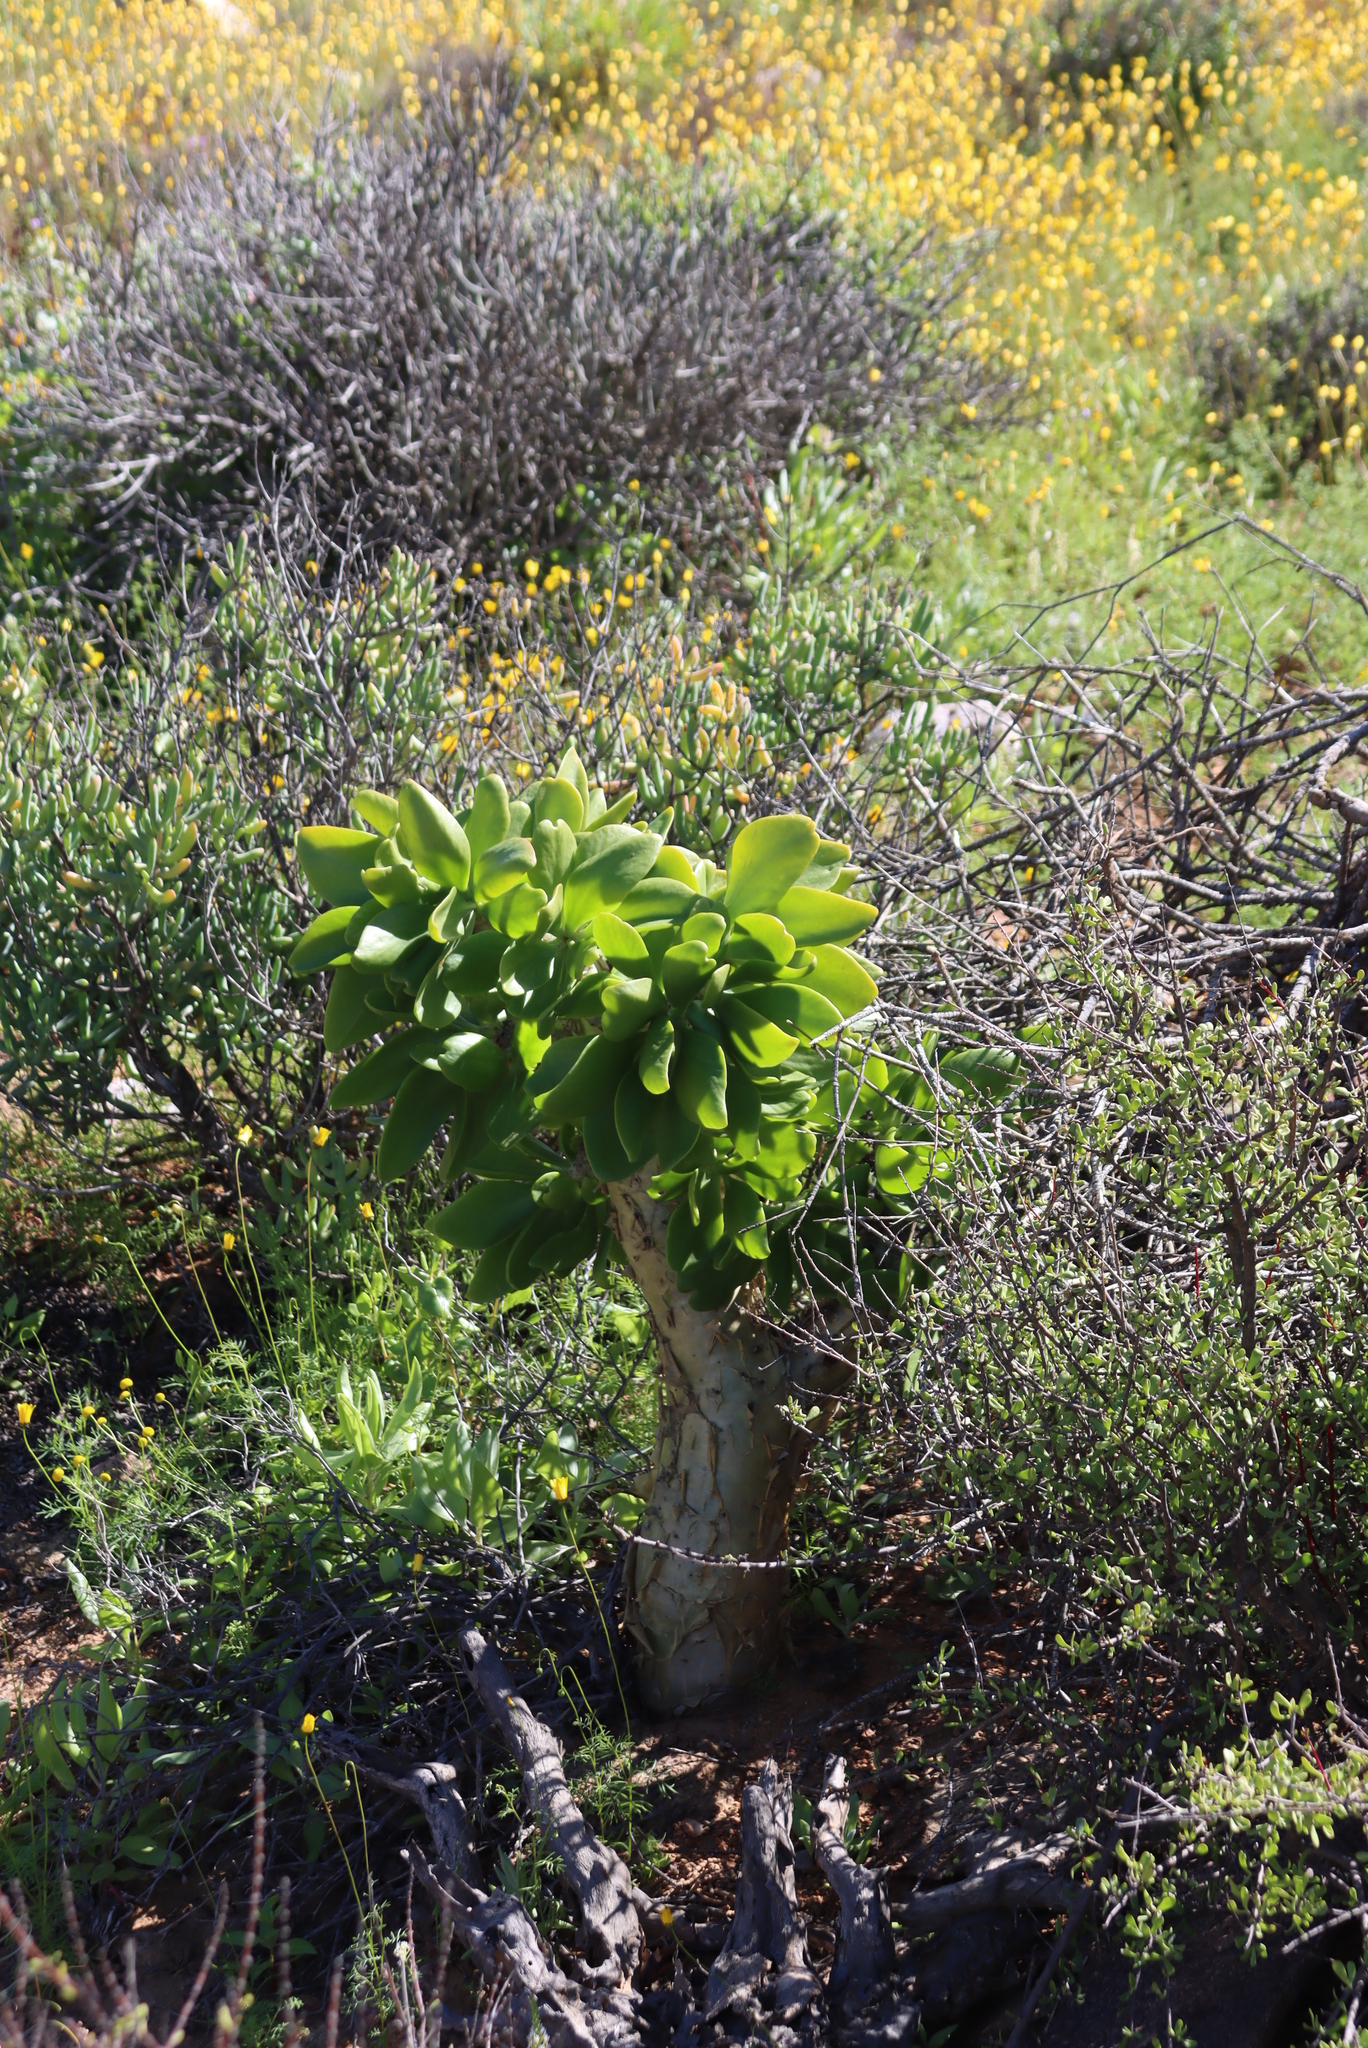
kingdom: Plantae
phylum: Tracheophyta
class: Magnoliopsida
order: Saxifragales
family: Crassulaceae
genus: Tylecodon
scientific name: Tylecodon paniculatus
